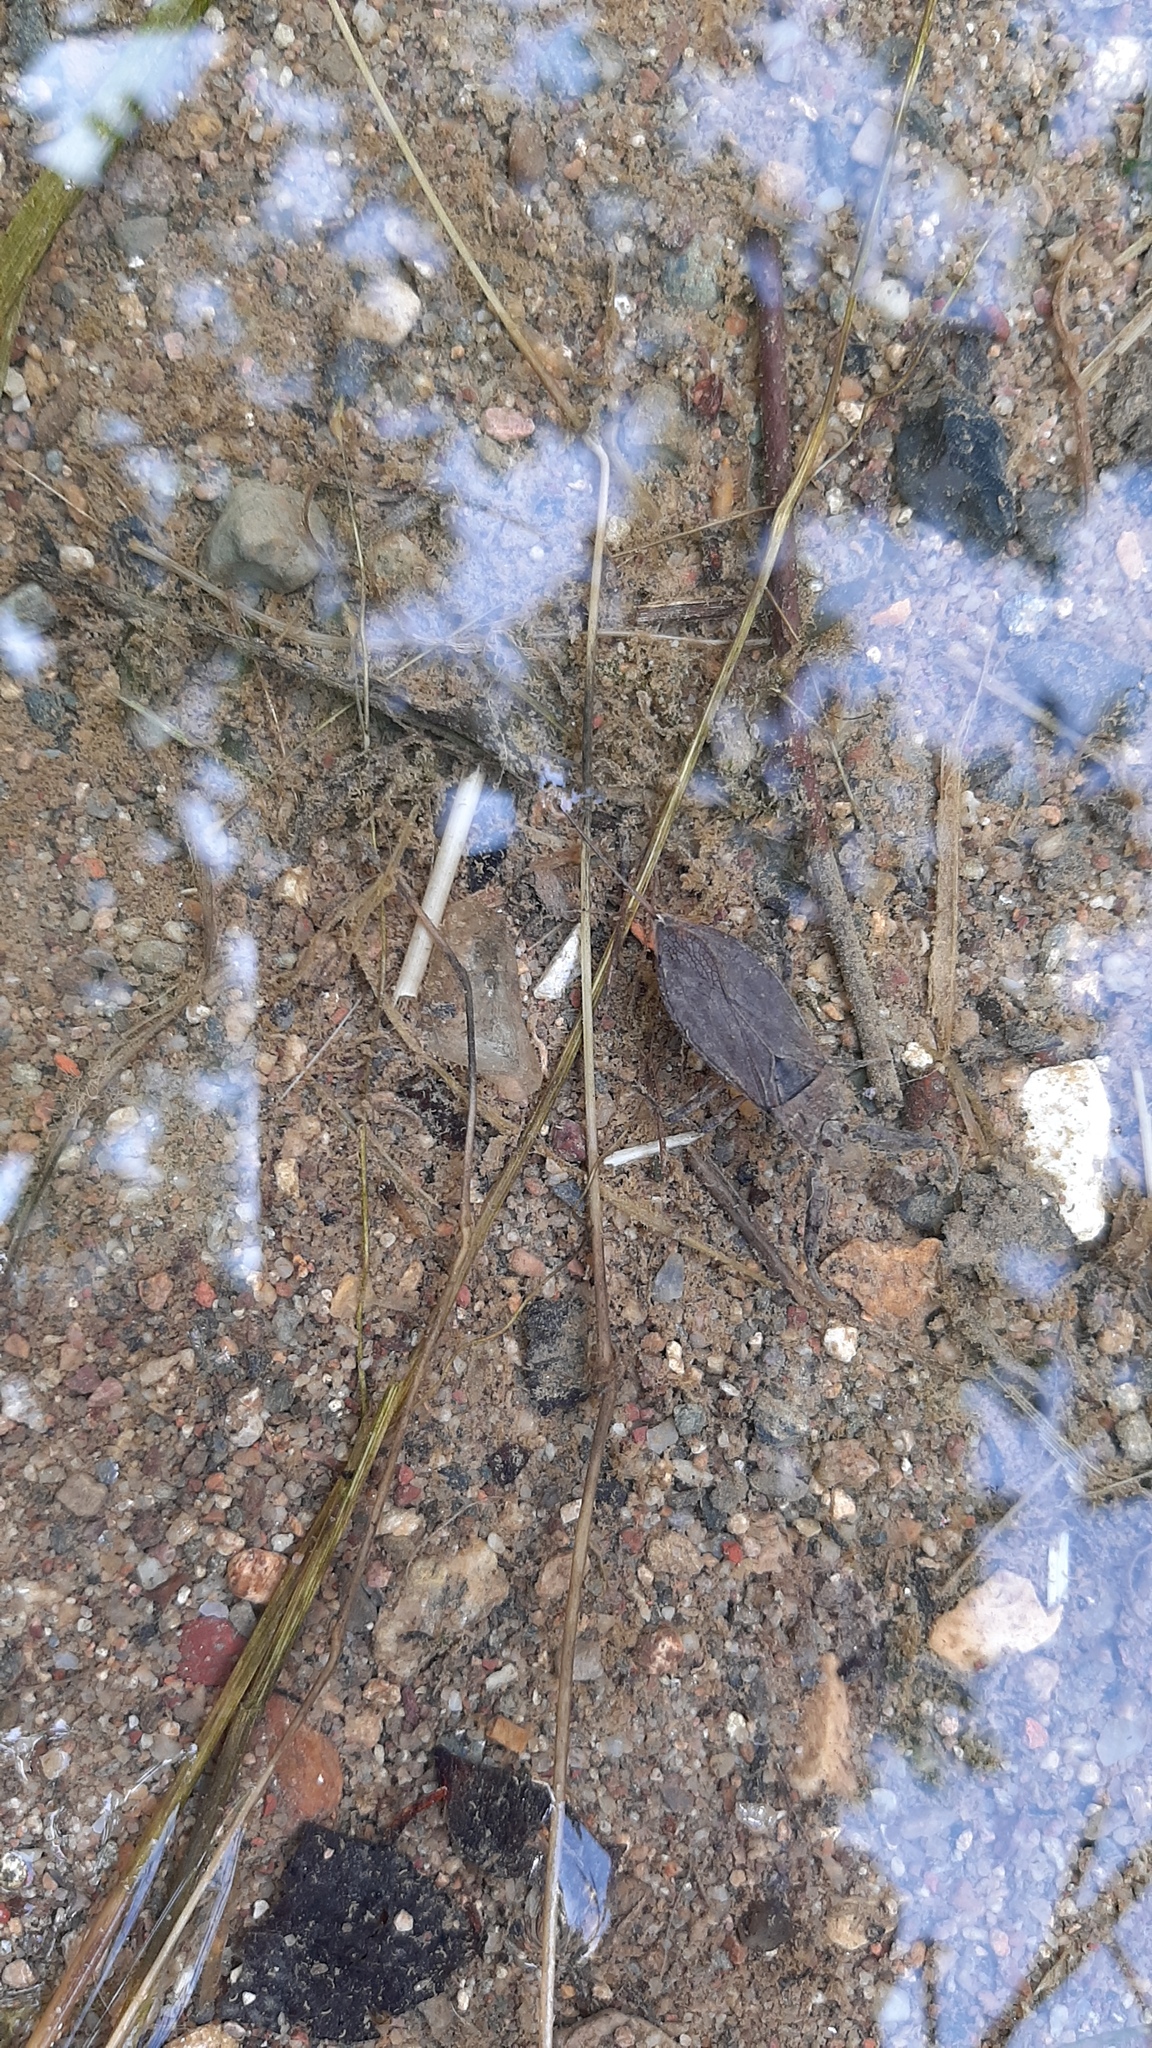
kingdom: Animalia
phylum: Arthropoda
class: Insecta
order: Hemiptera
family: Nepidae
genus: Nepa
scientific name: Nepa cinerea
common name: Water scorpion
